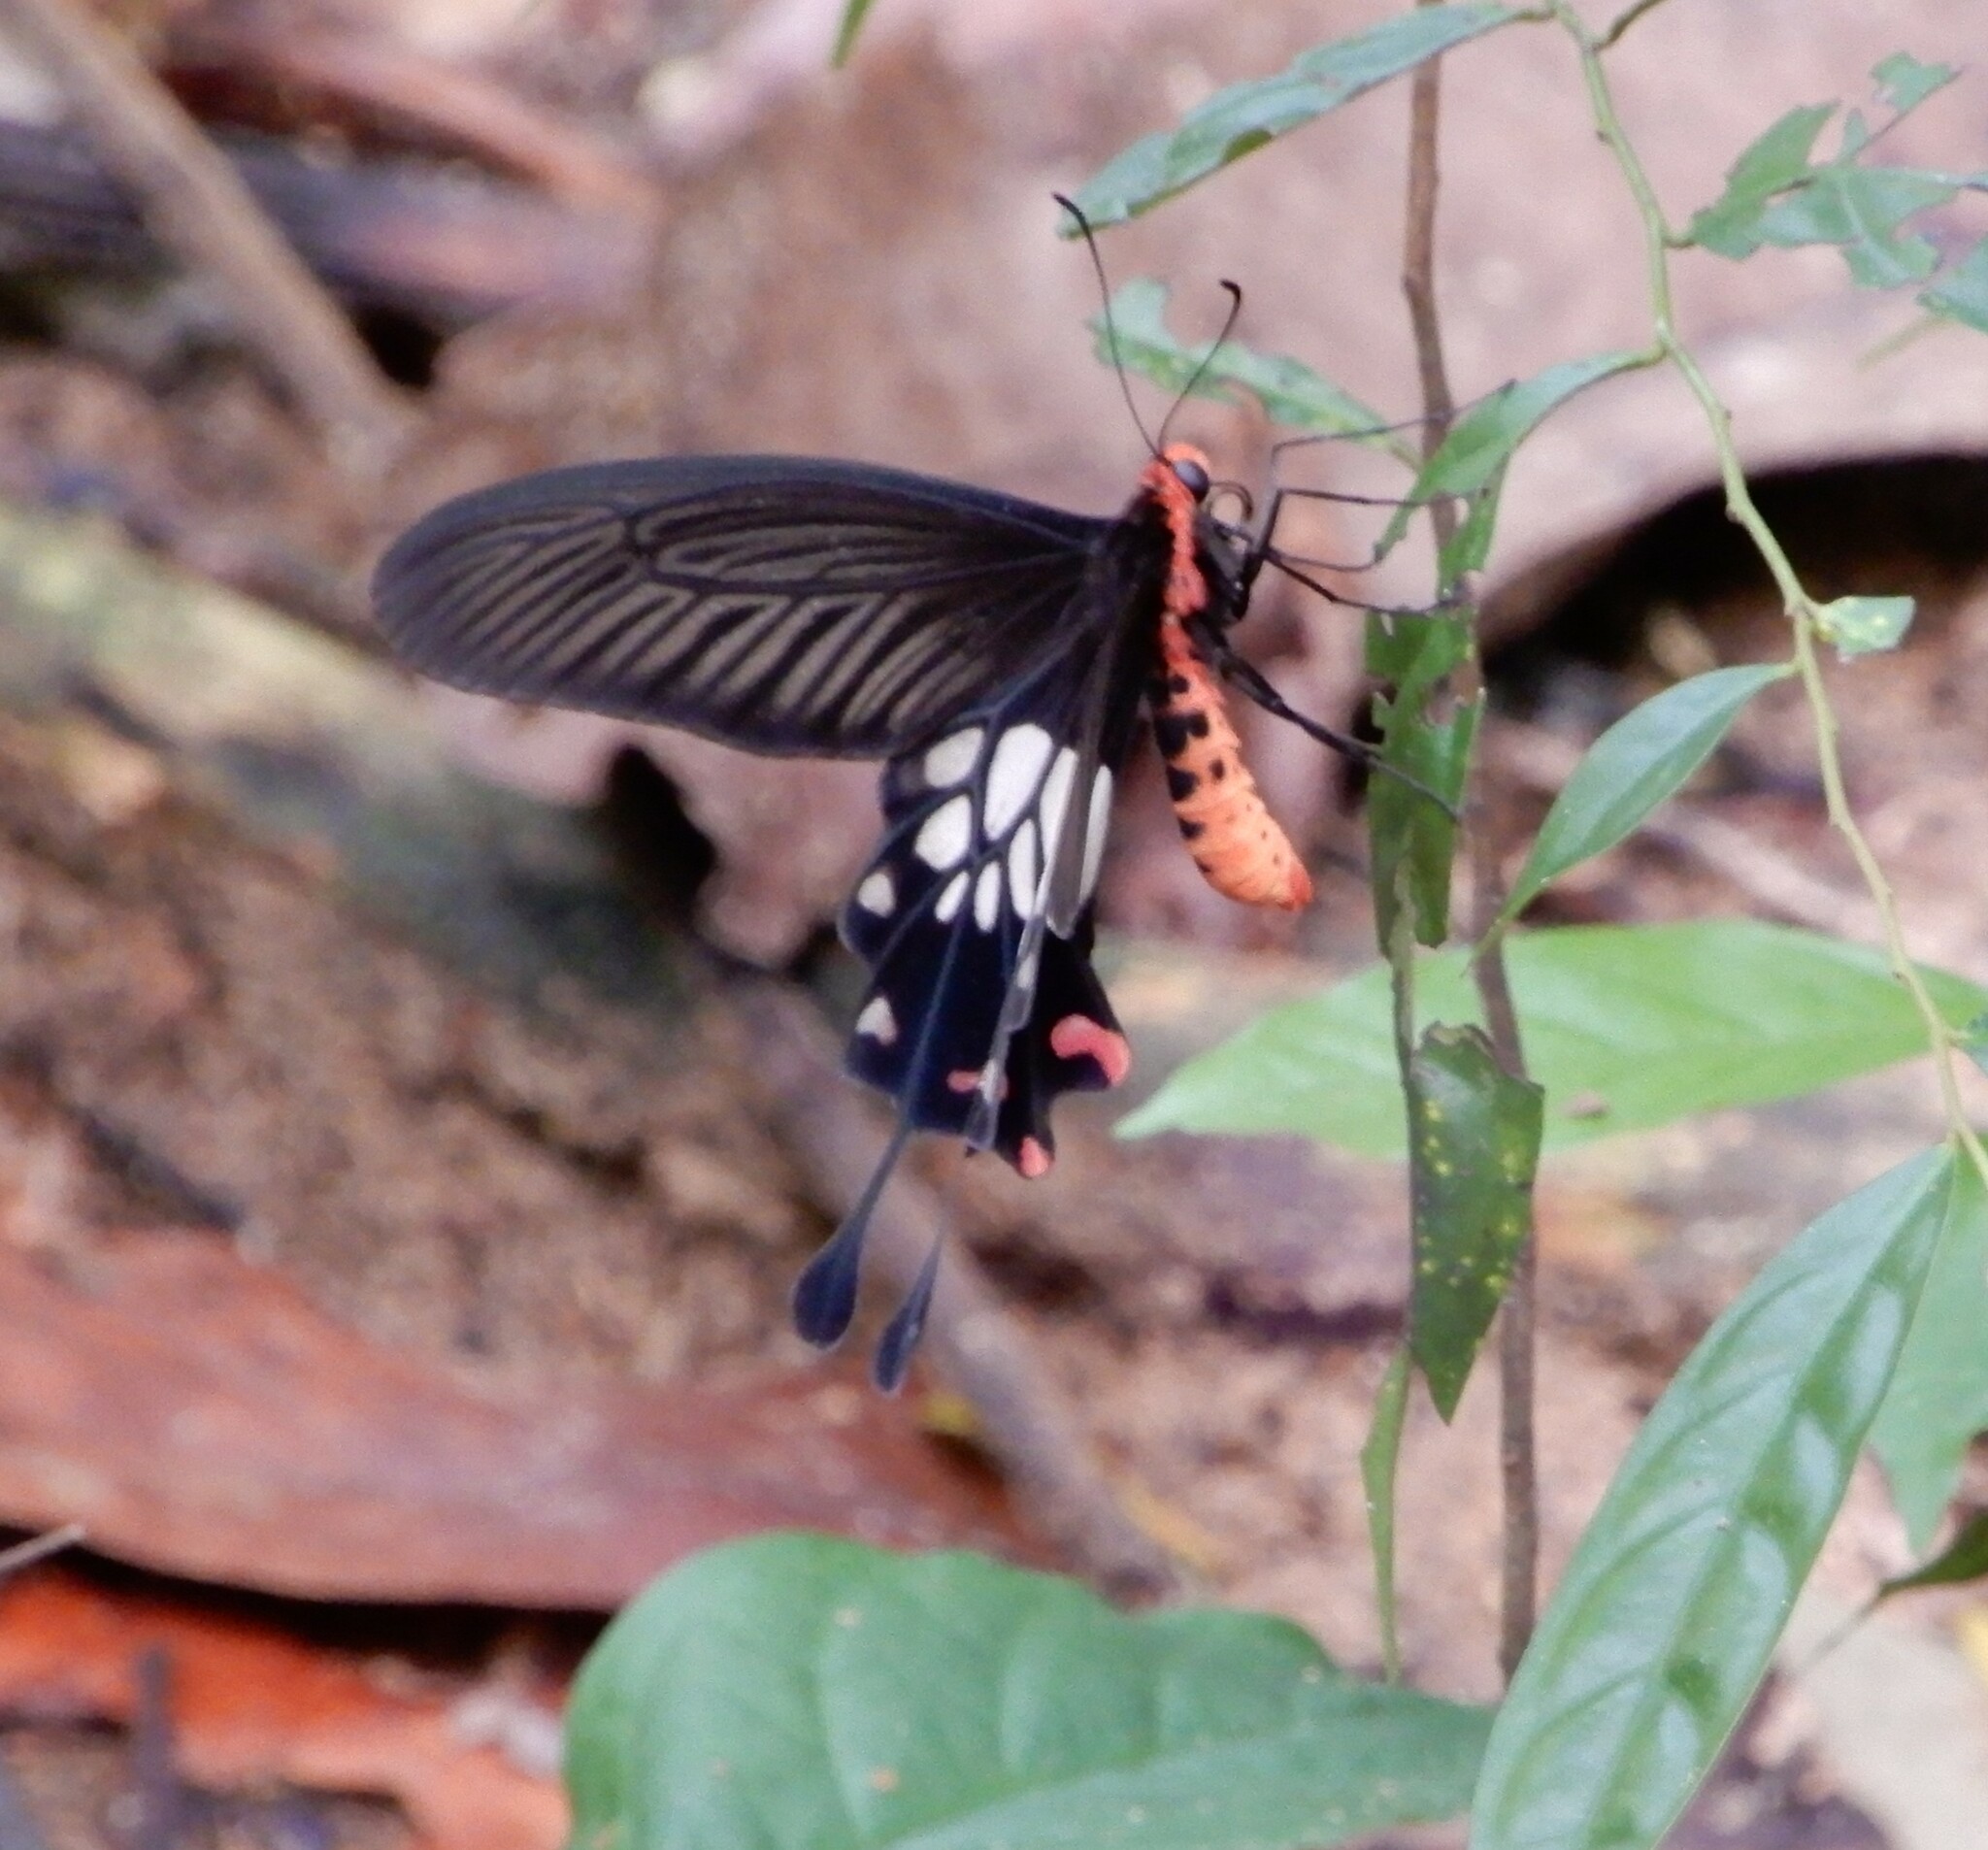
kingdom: Animalia
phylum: Arthropoda
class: Insecta
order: Lepidoptera
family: Papilionidae
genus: Losaria
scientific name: Losaria
